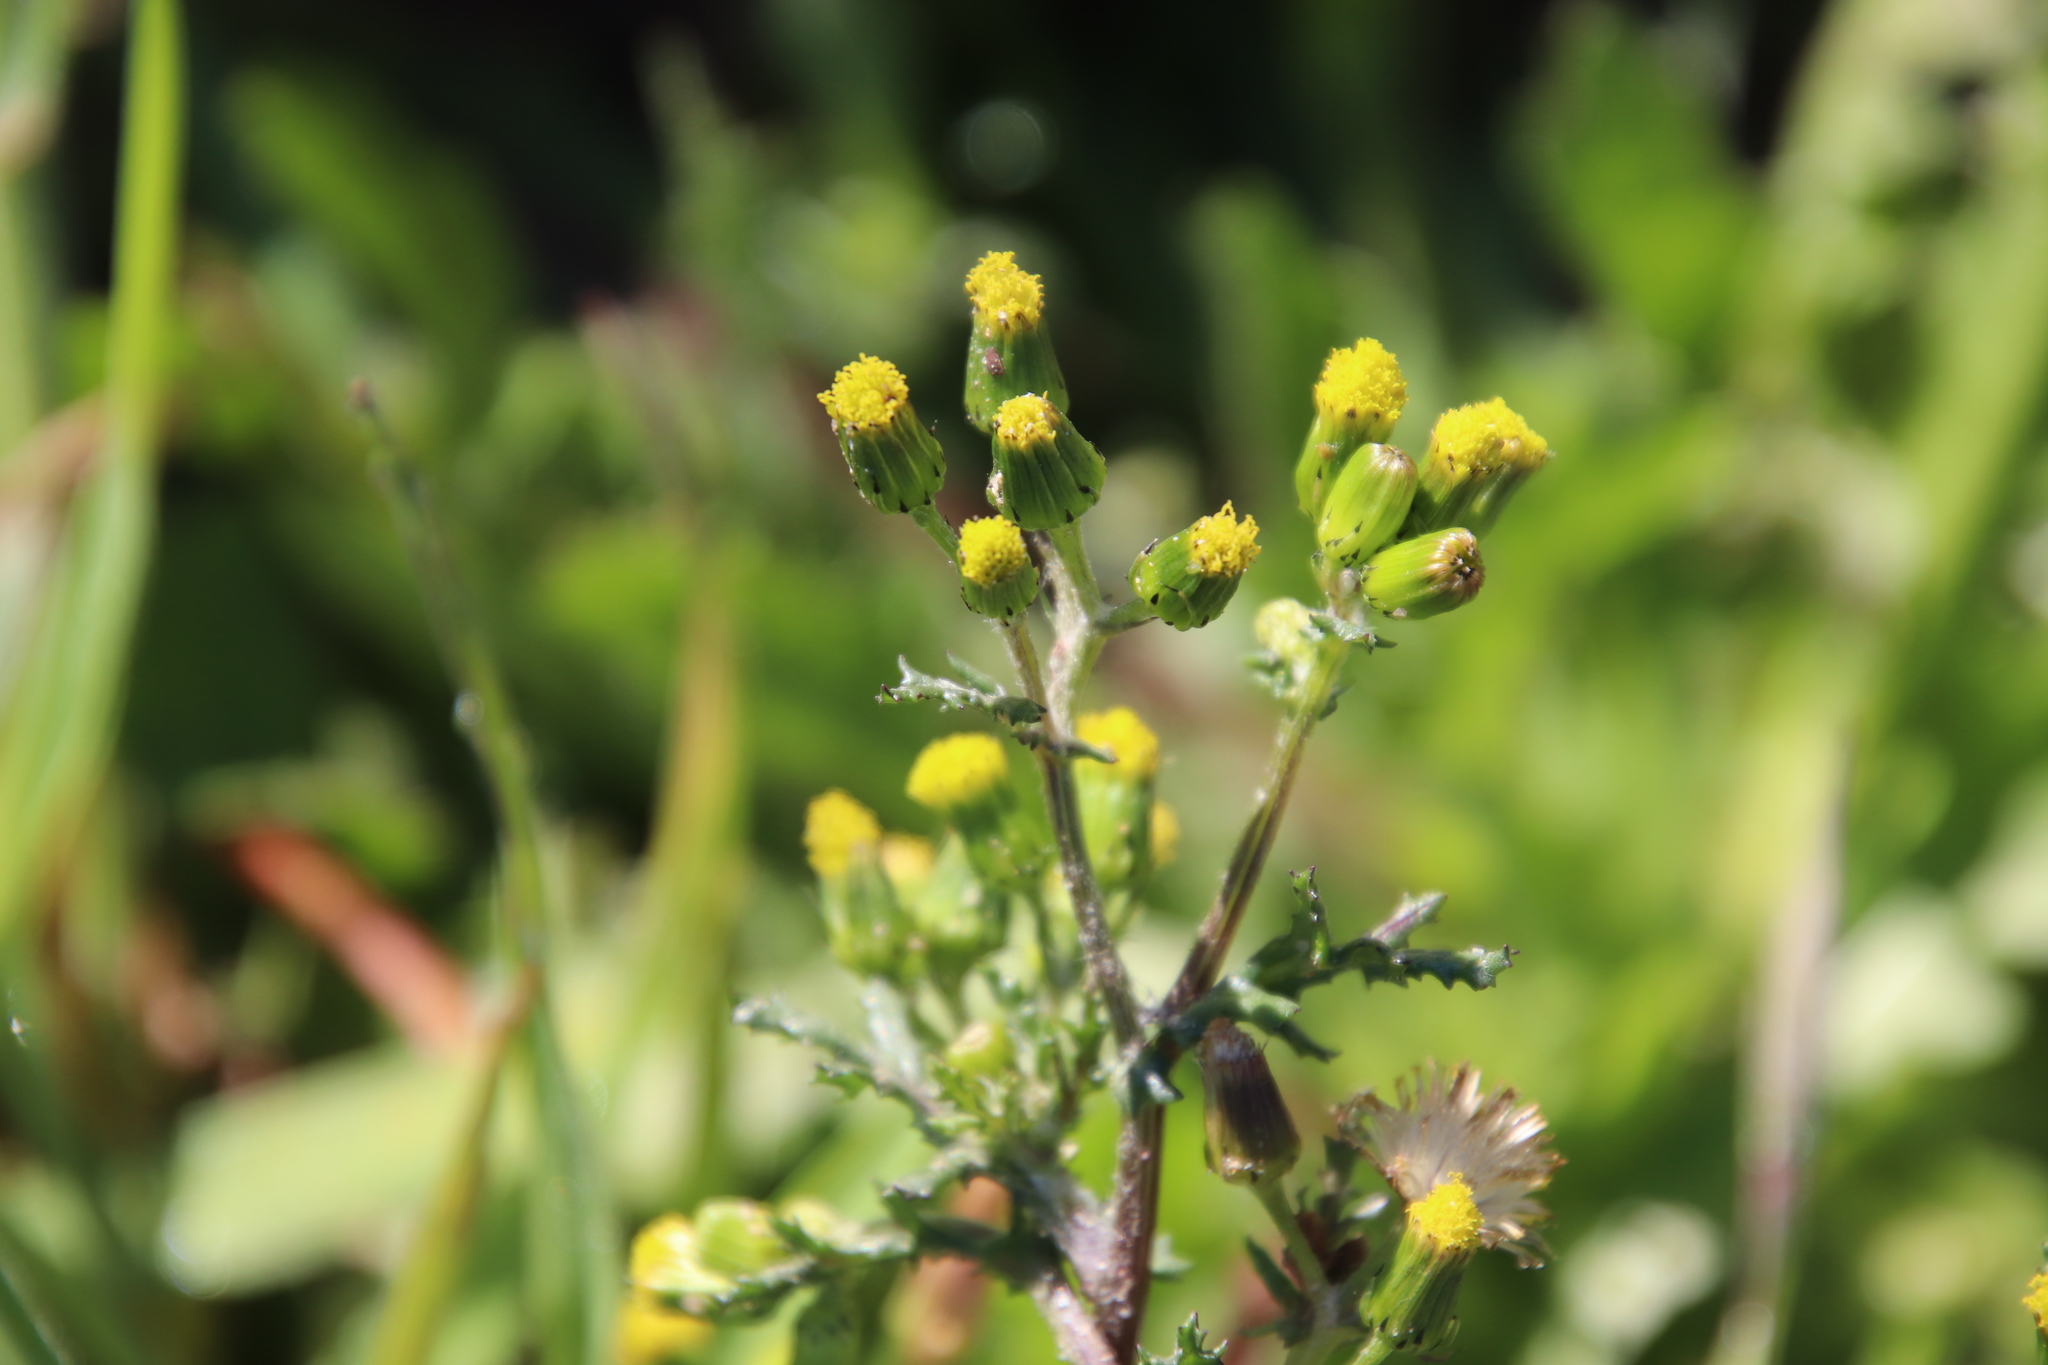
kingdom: Plantae
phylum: Tracheophyta
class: Magnoliopsida
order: Asterales
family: Asteraceae
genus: Senecio
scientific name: Senecio vulgaris
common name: Old-man-in-the-spring
